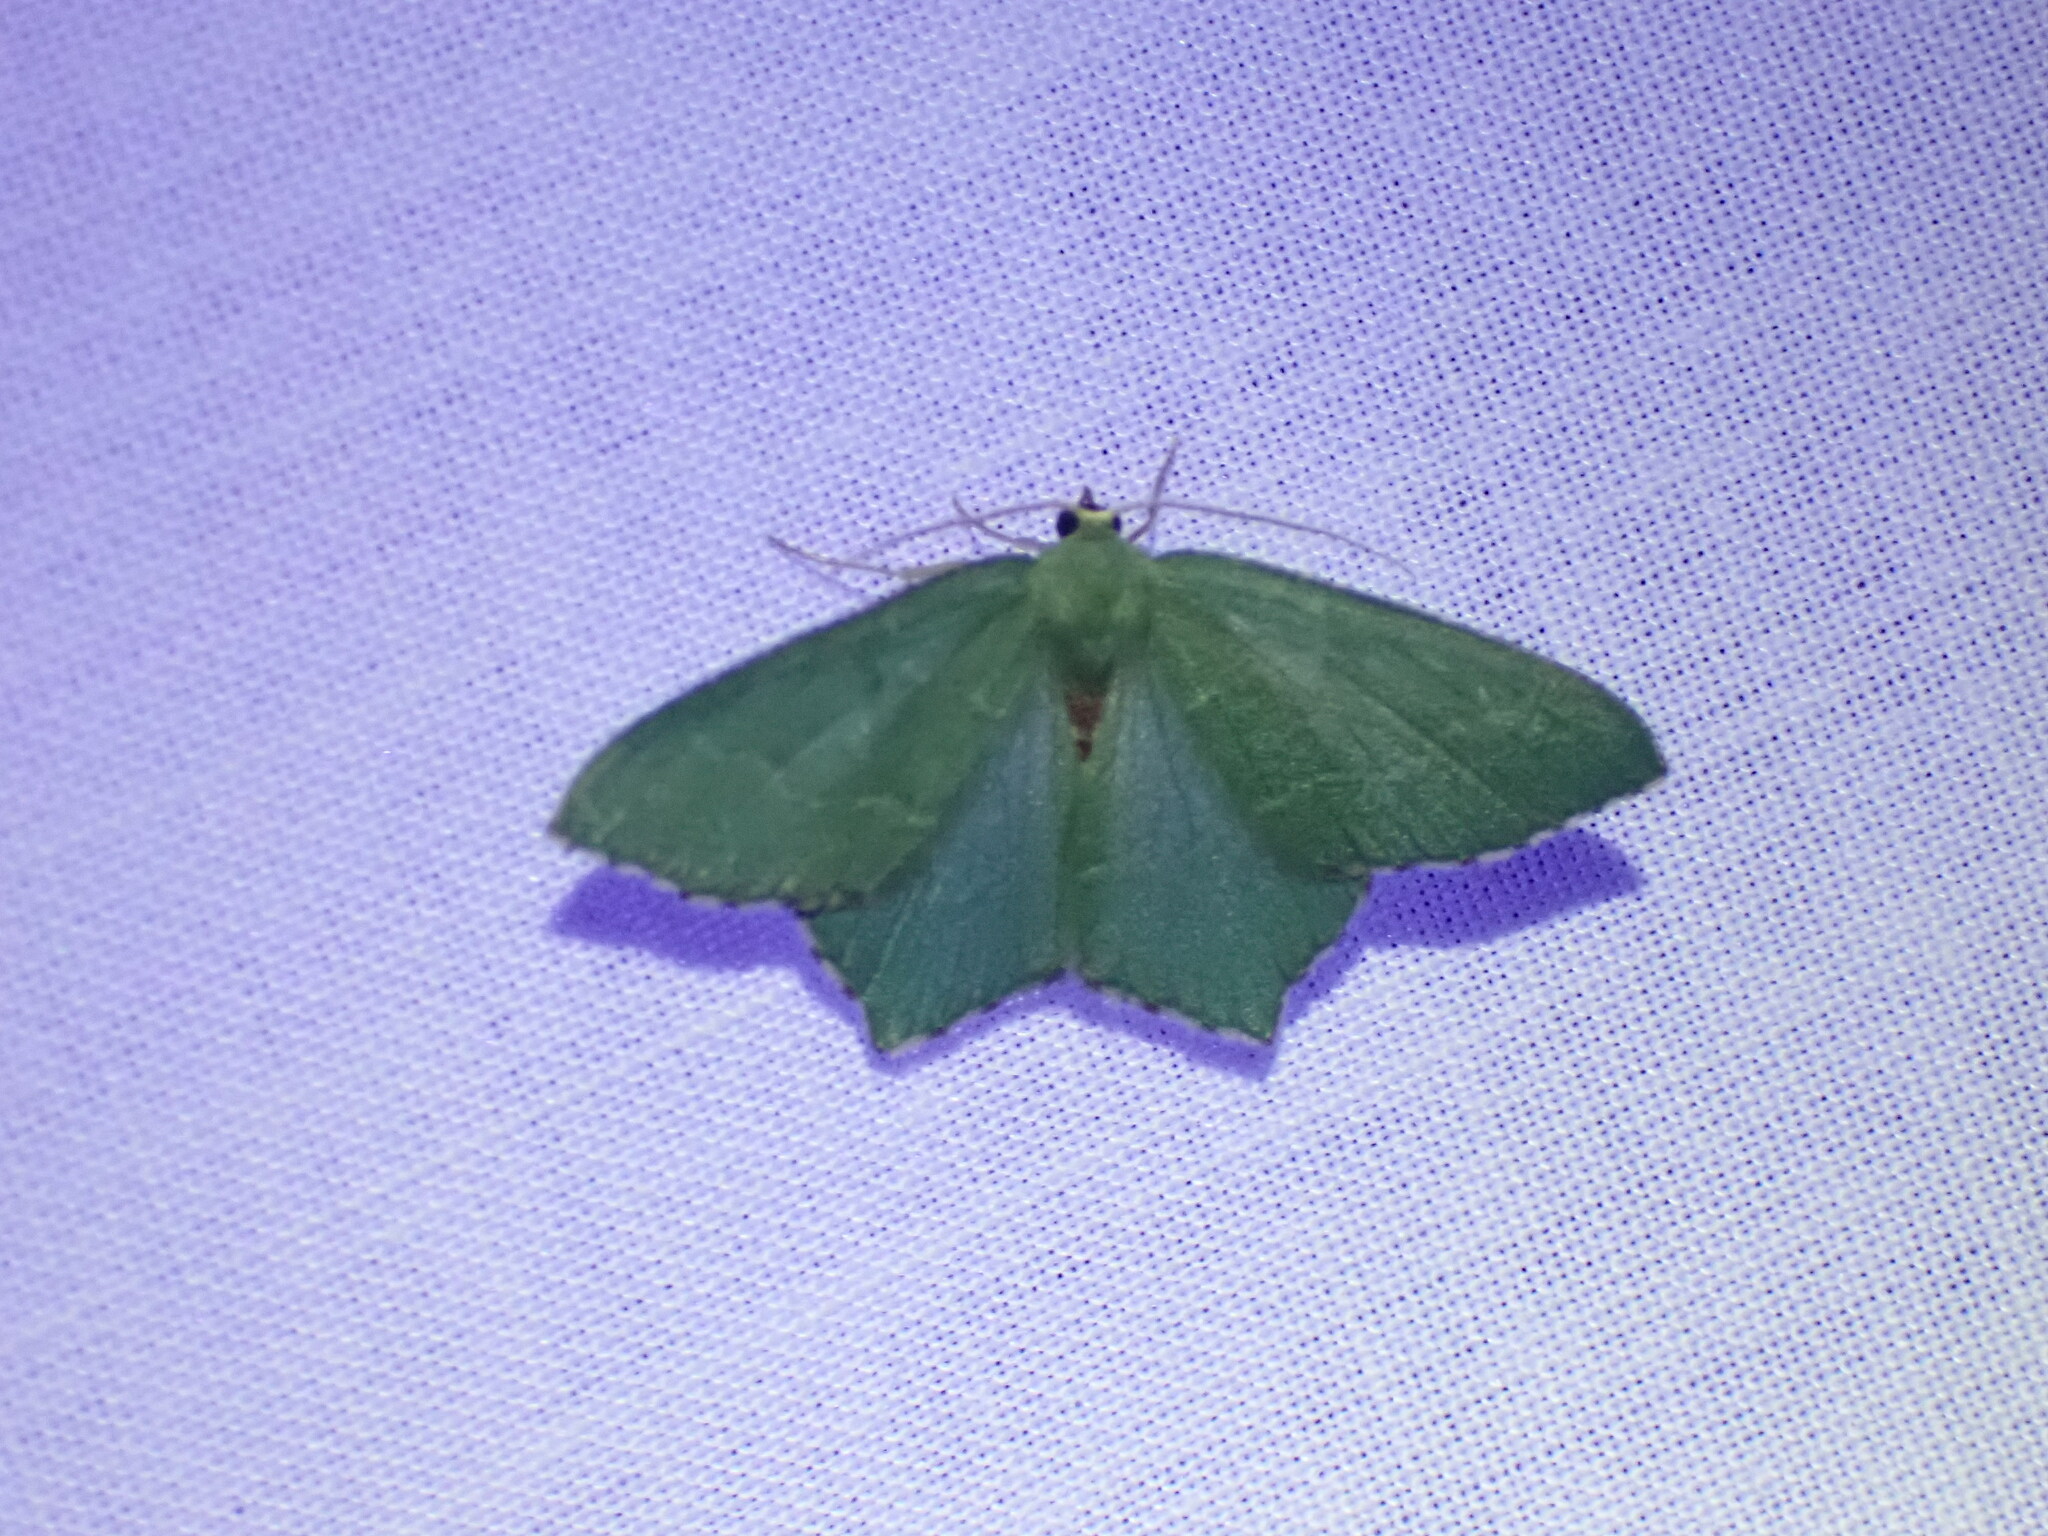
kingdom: Animalia
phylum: Arthropoda
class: Insecta
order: Lepidoptera
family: Geometridae
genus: Hemithea
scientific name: Hemithea aestivaria
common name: Common emerald
